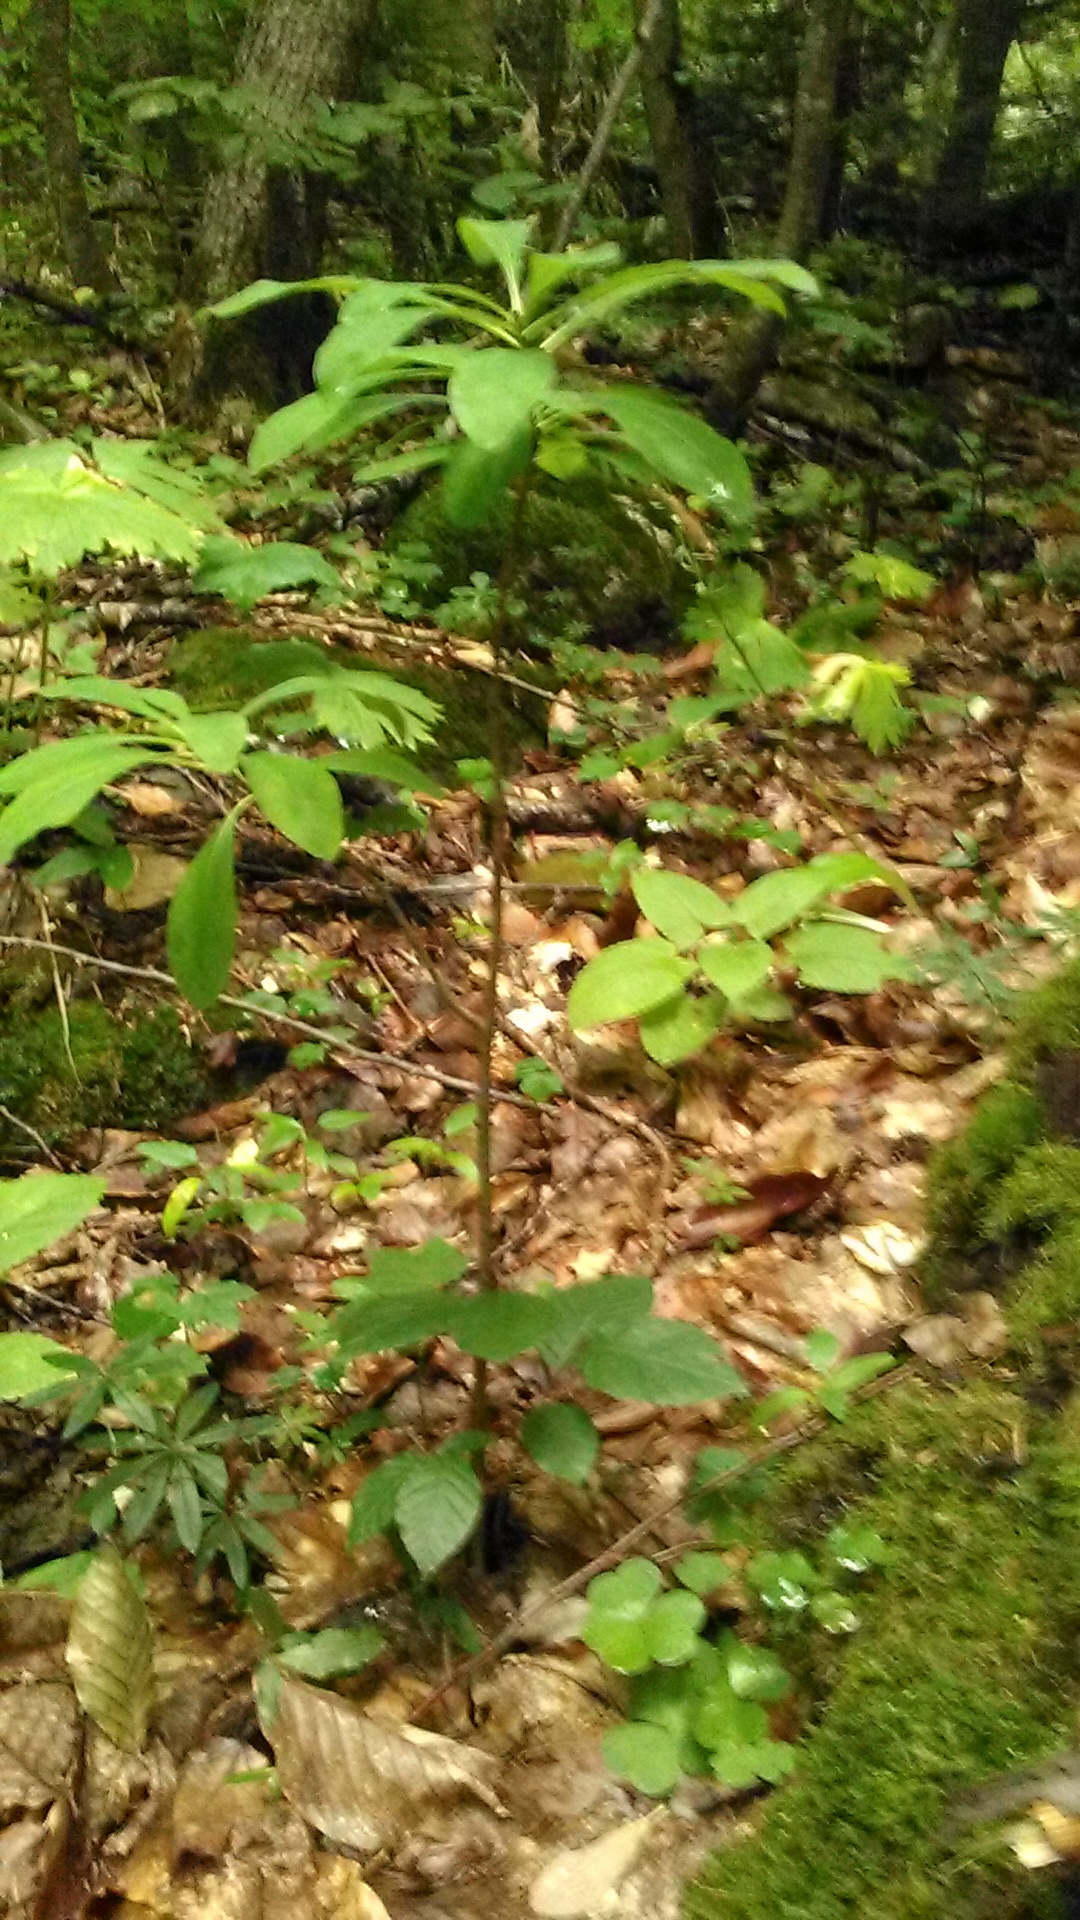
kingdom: Plantae
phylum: Tracheophyta
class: Magnoliopsida
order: Malvales
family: Thymelaeaceae
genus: Daphne
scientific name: Daphne mezereum
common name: Mezereon
